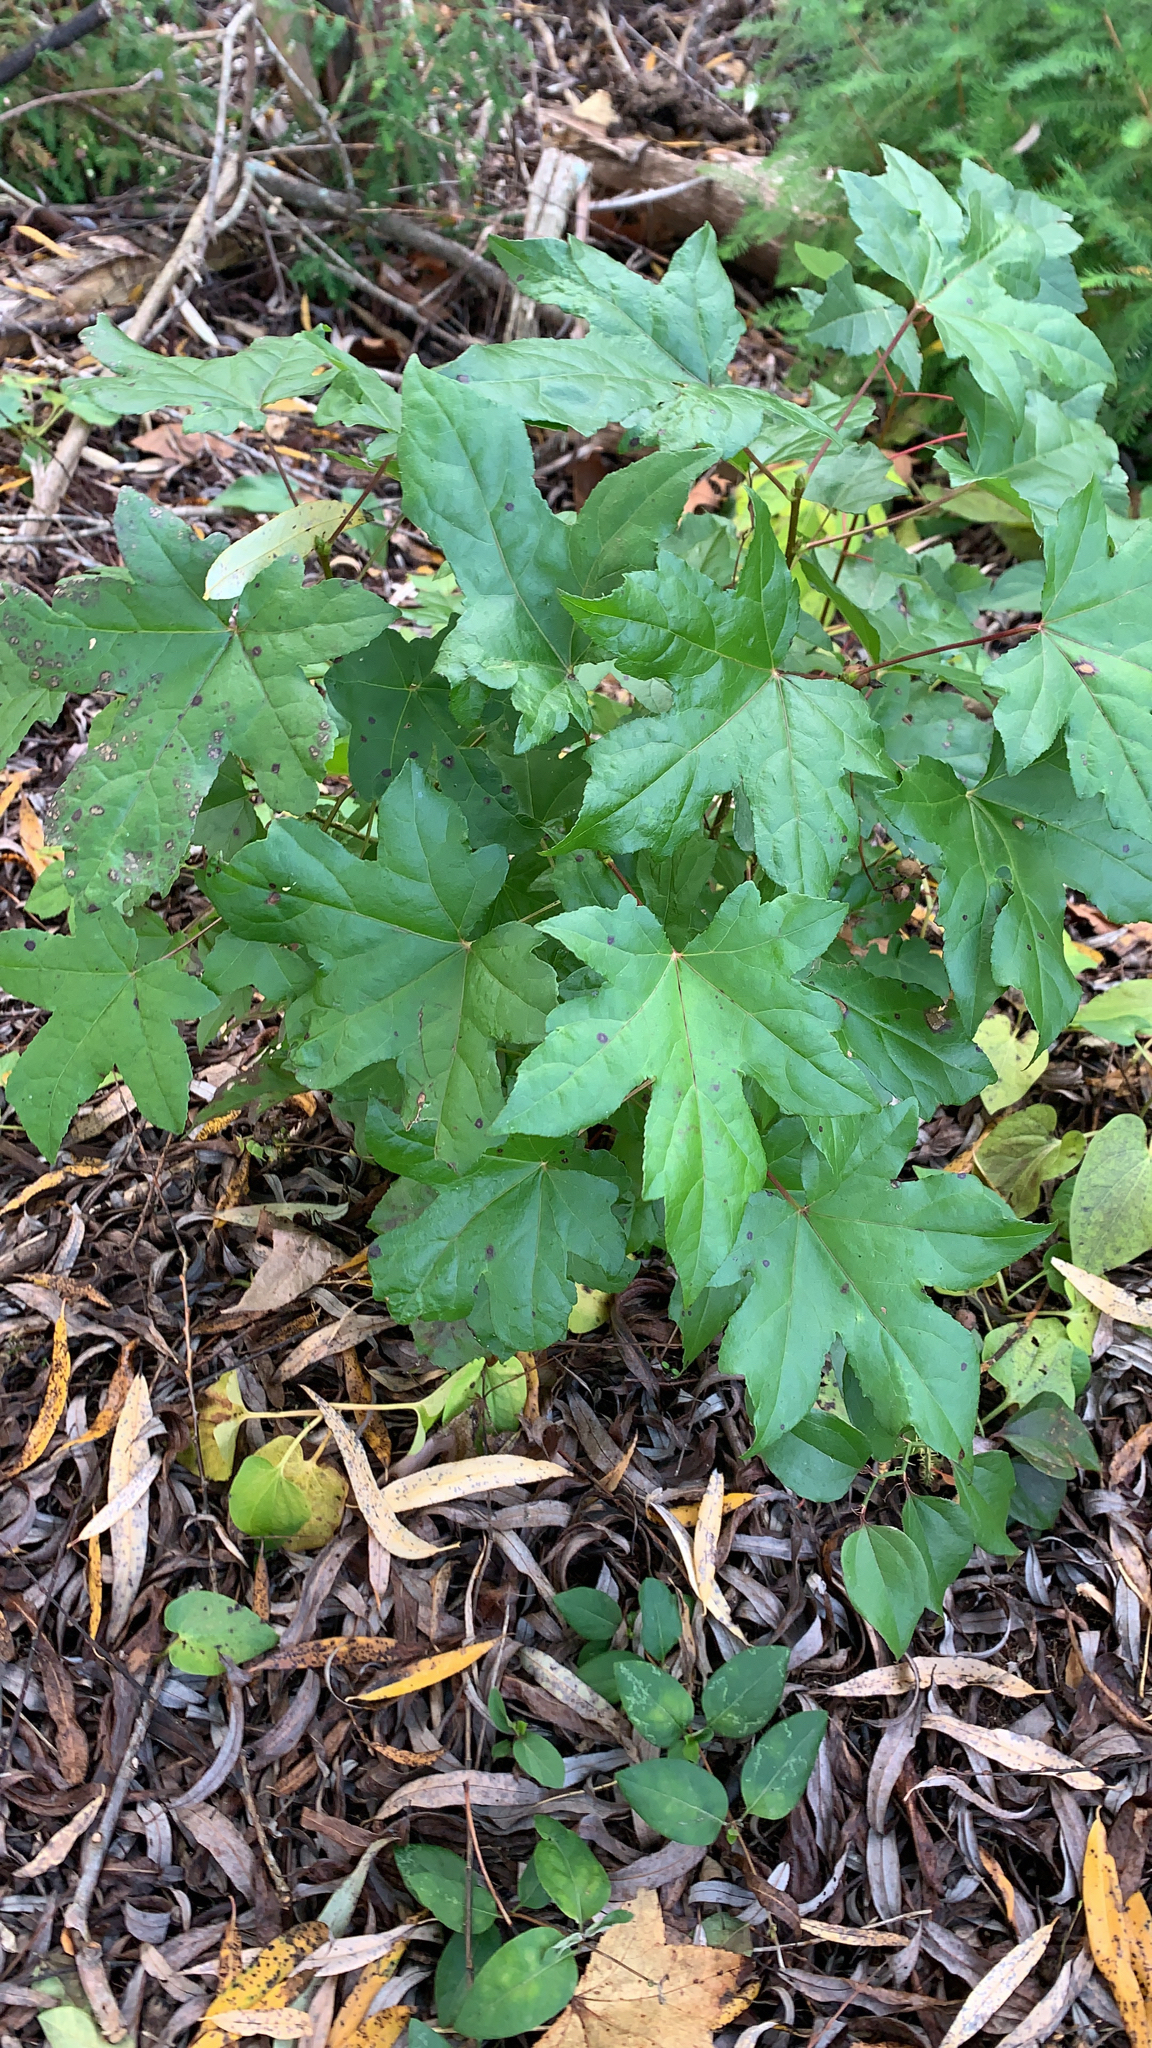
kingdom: Plantae
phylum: Tracheophyta
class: Magnoliopsida
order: Saxifragales
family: Altingiaceae
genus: Liquidambar
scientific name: Liquidambar styraciflua
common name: Sweet gum
